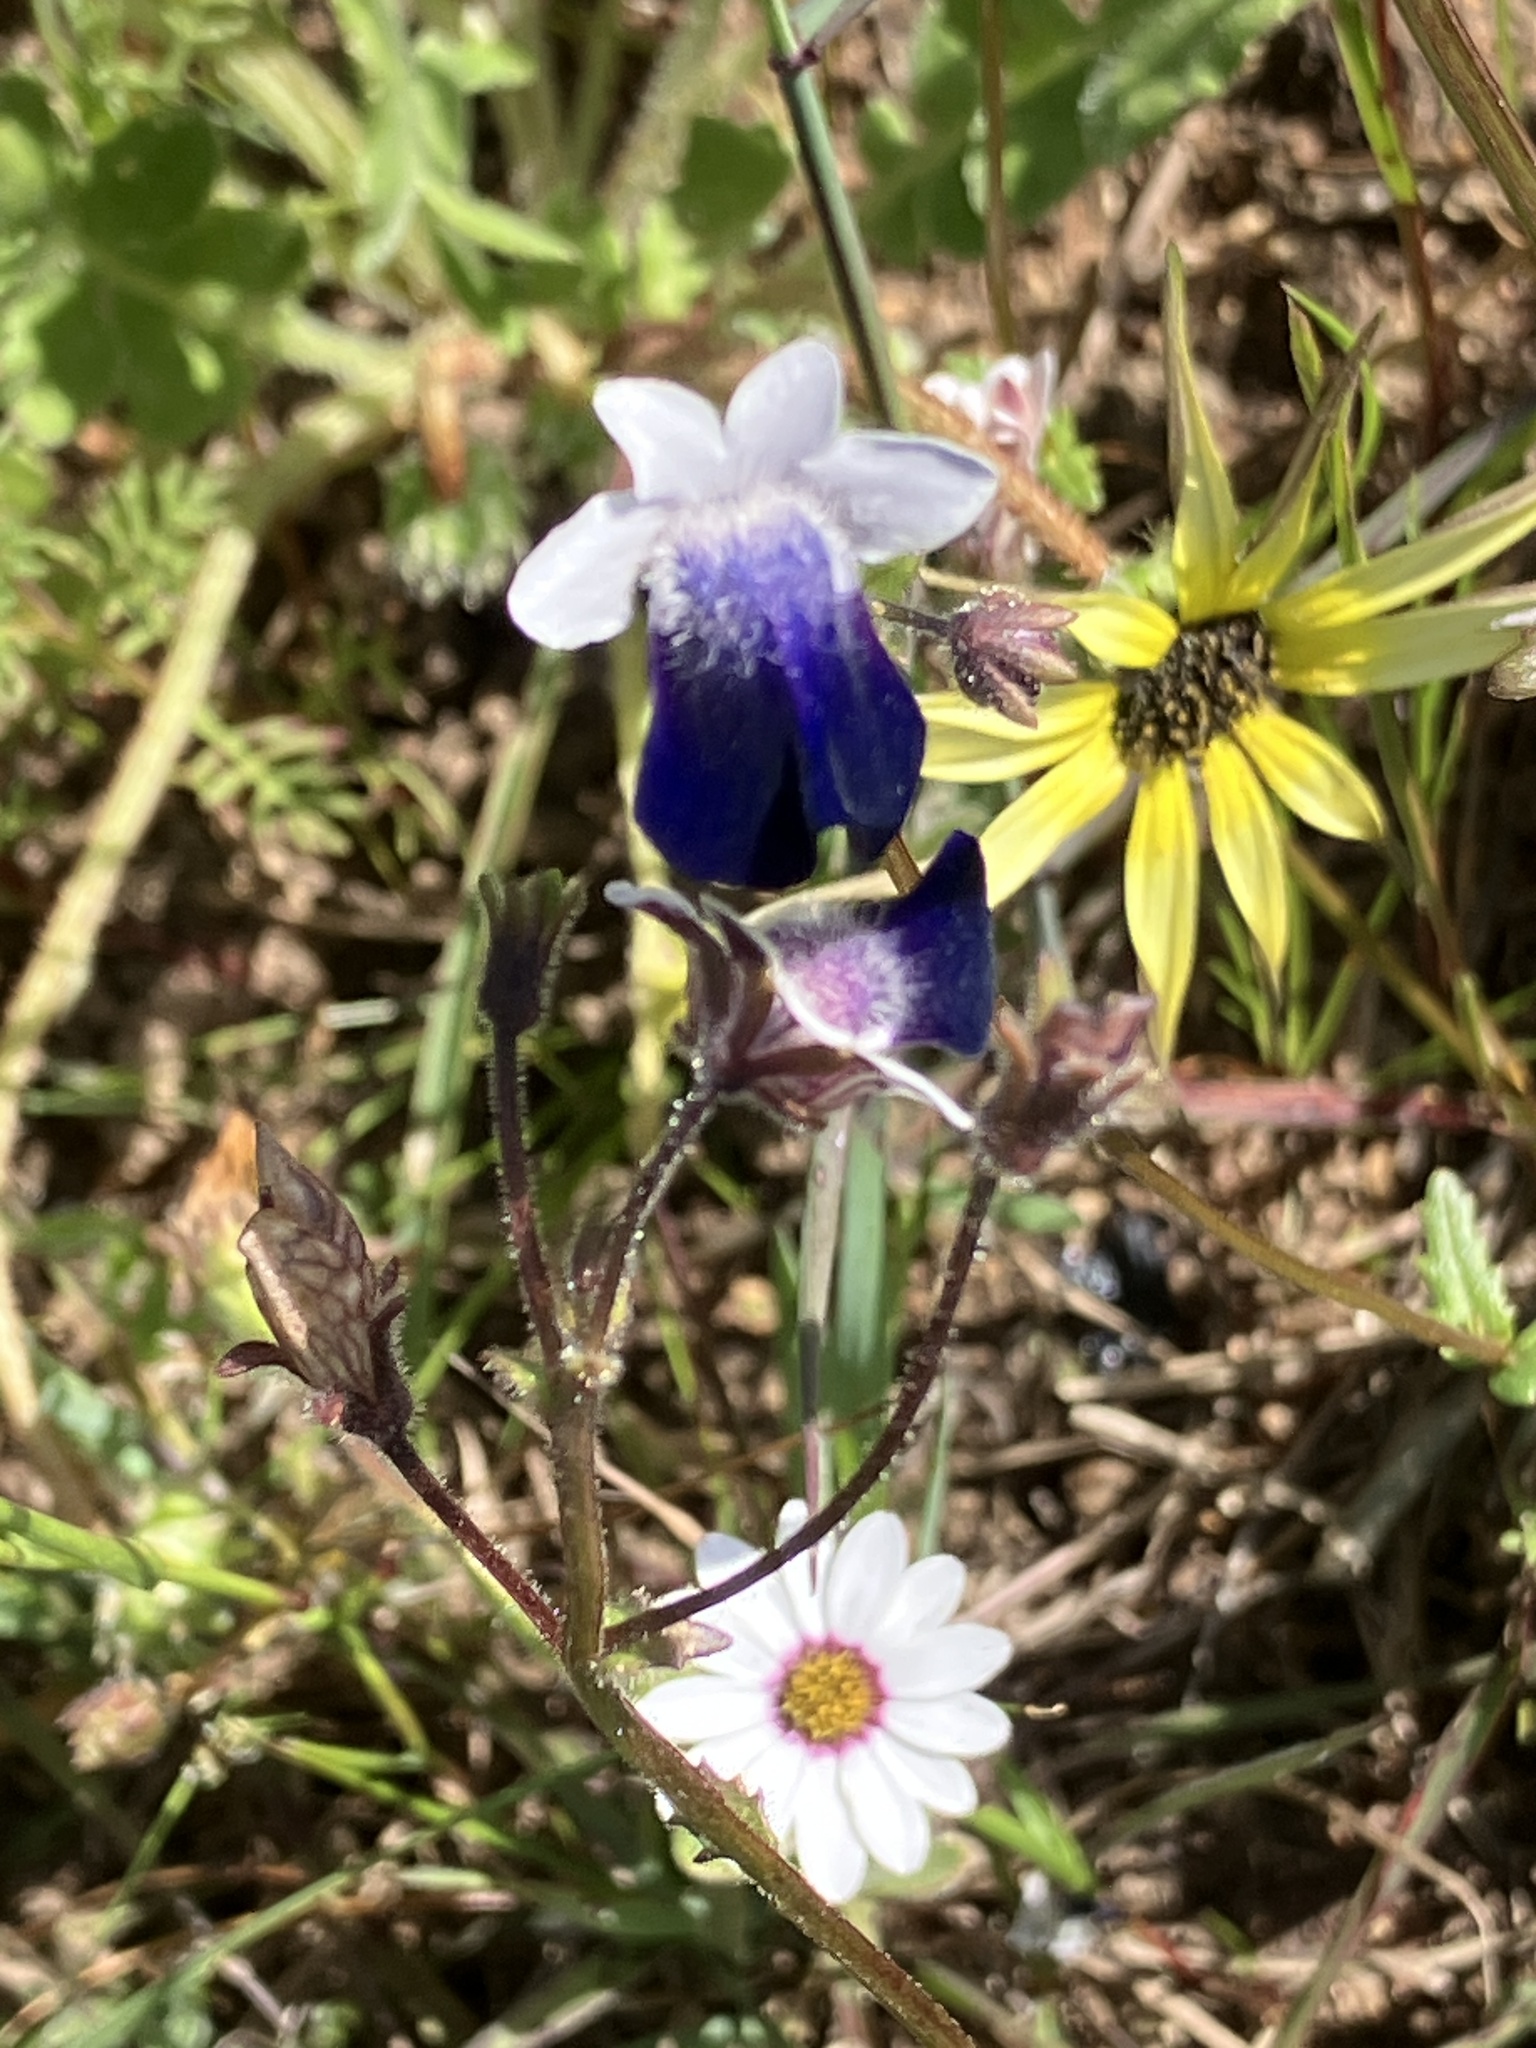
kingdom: Plantae
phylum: Tracheophyta
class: Magnoliopsida
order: Lamiales
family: Scrophulariaceae
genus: Nemesia
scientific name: Nemesia barbata
